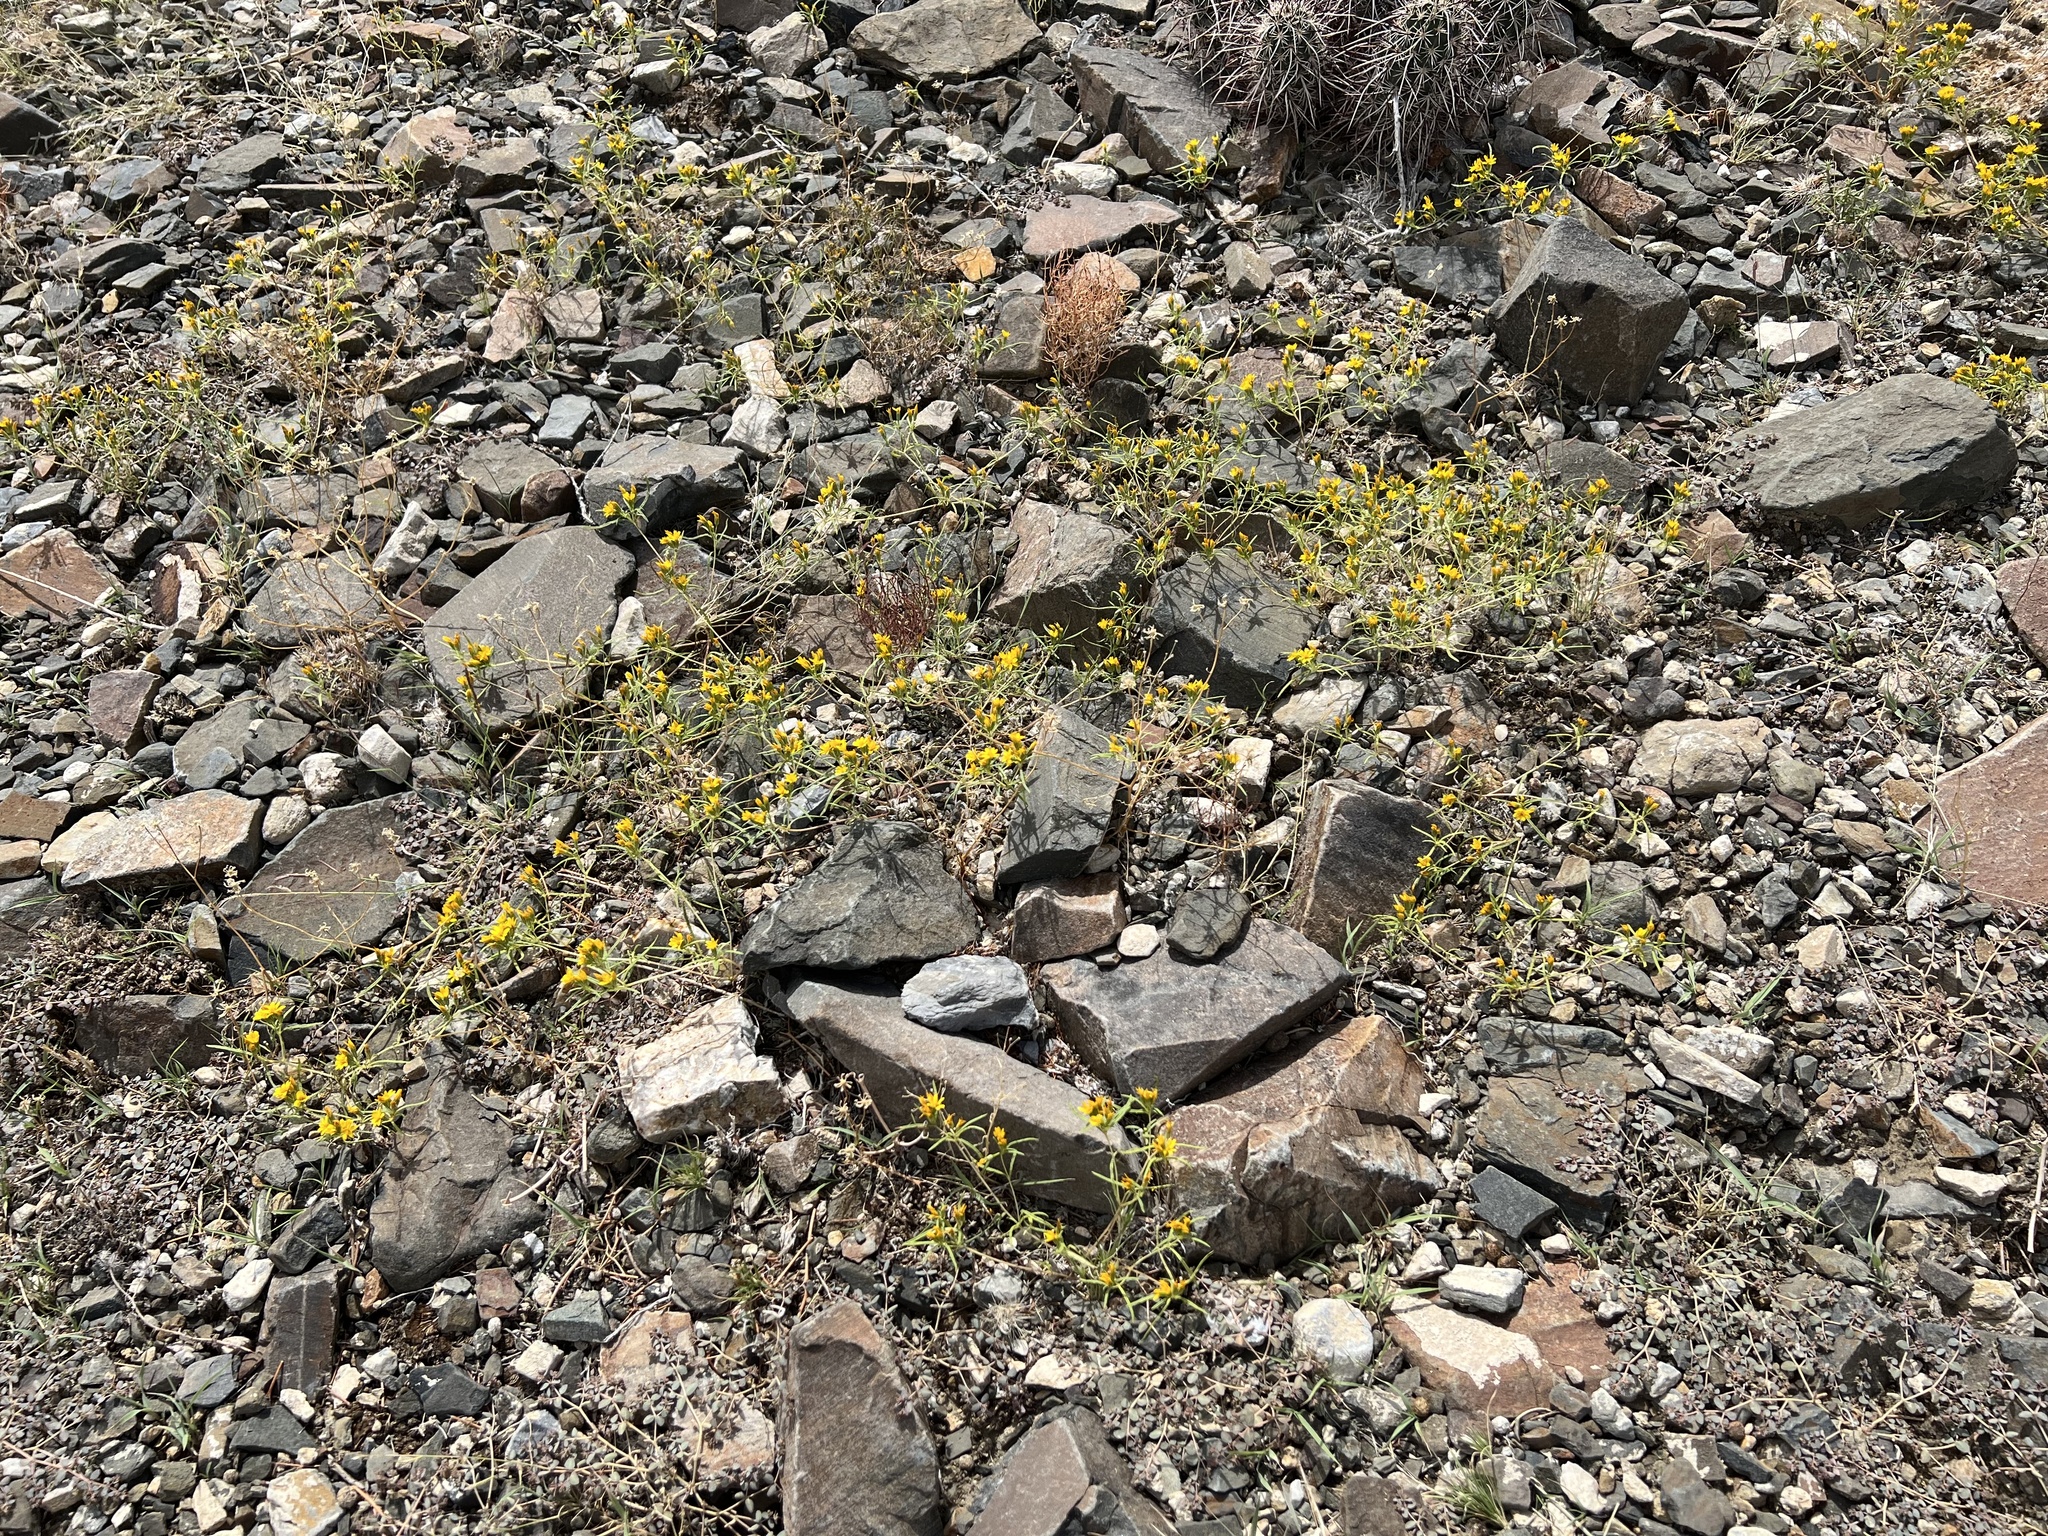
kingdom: Plantae
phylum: Tracheophyta
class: Magnoliopsida
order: Asterales
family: Asteraceae
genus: Pectis
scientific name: Pectis papposa
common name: Many-bristle chinchweed
